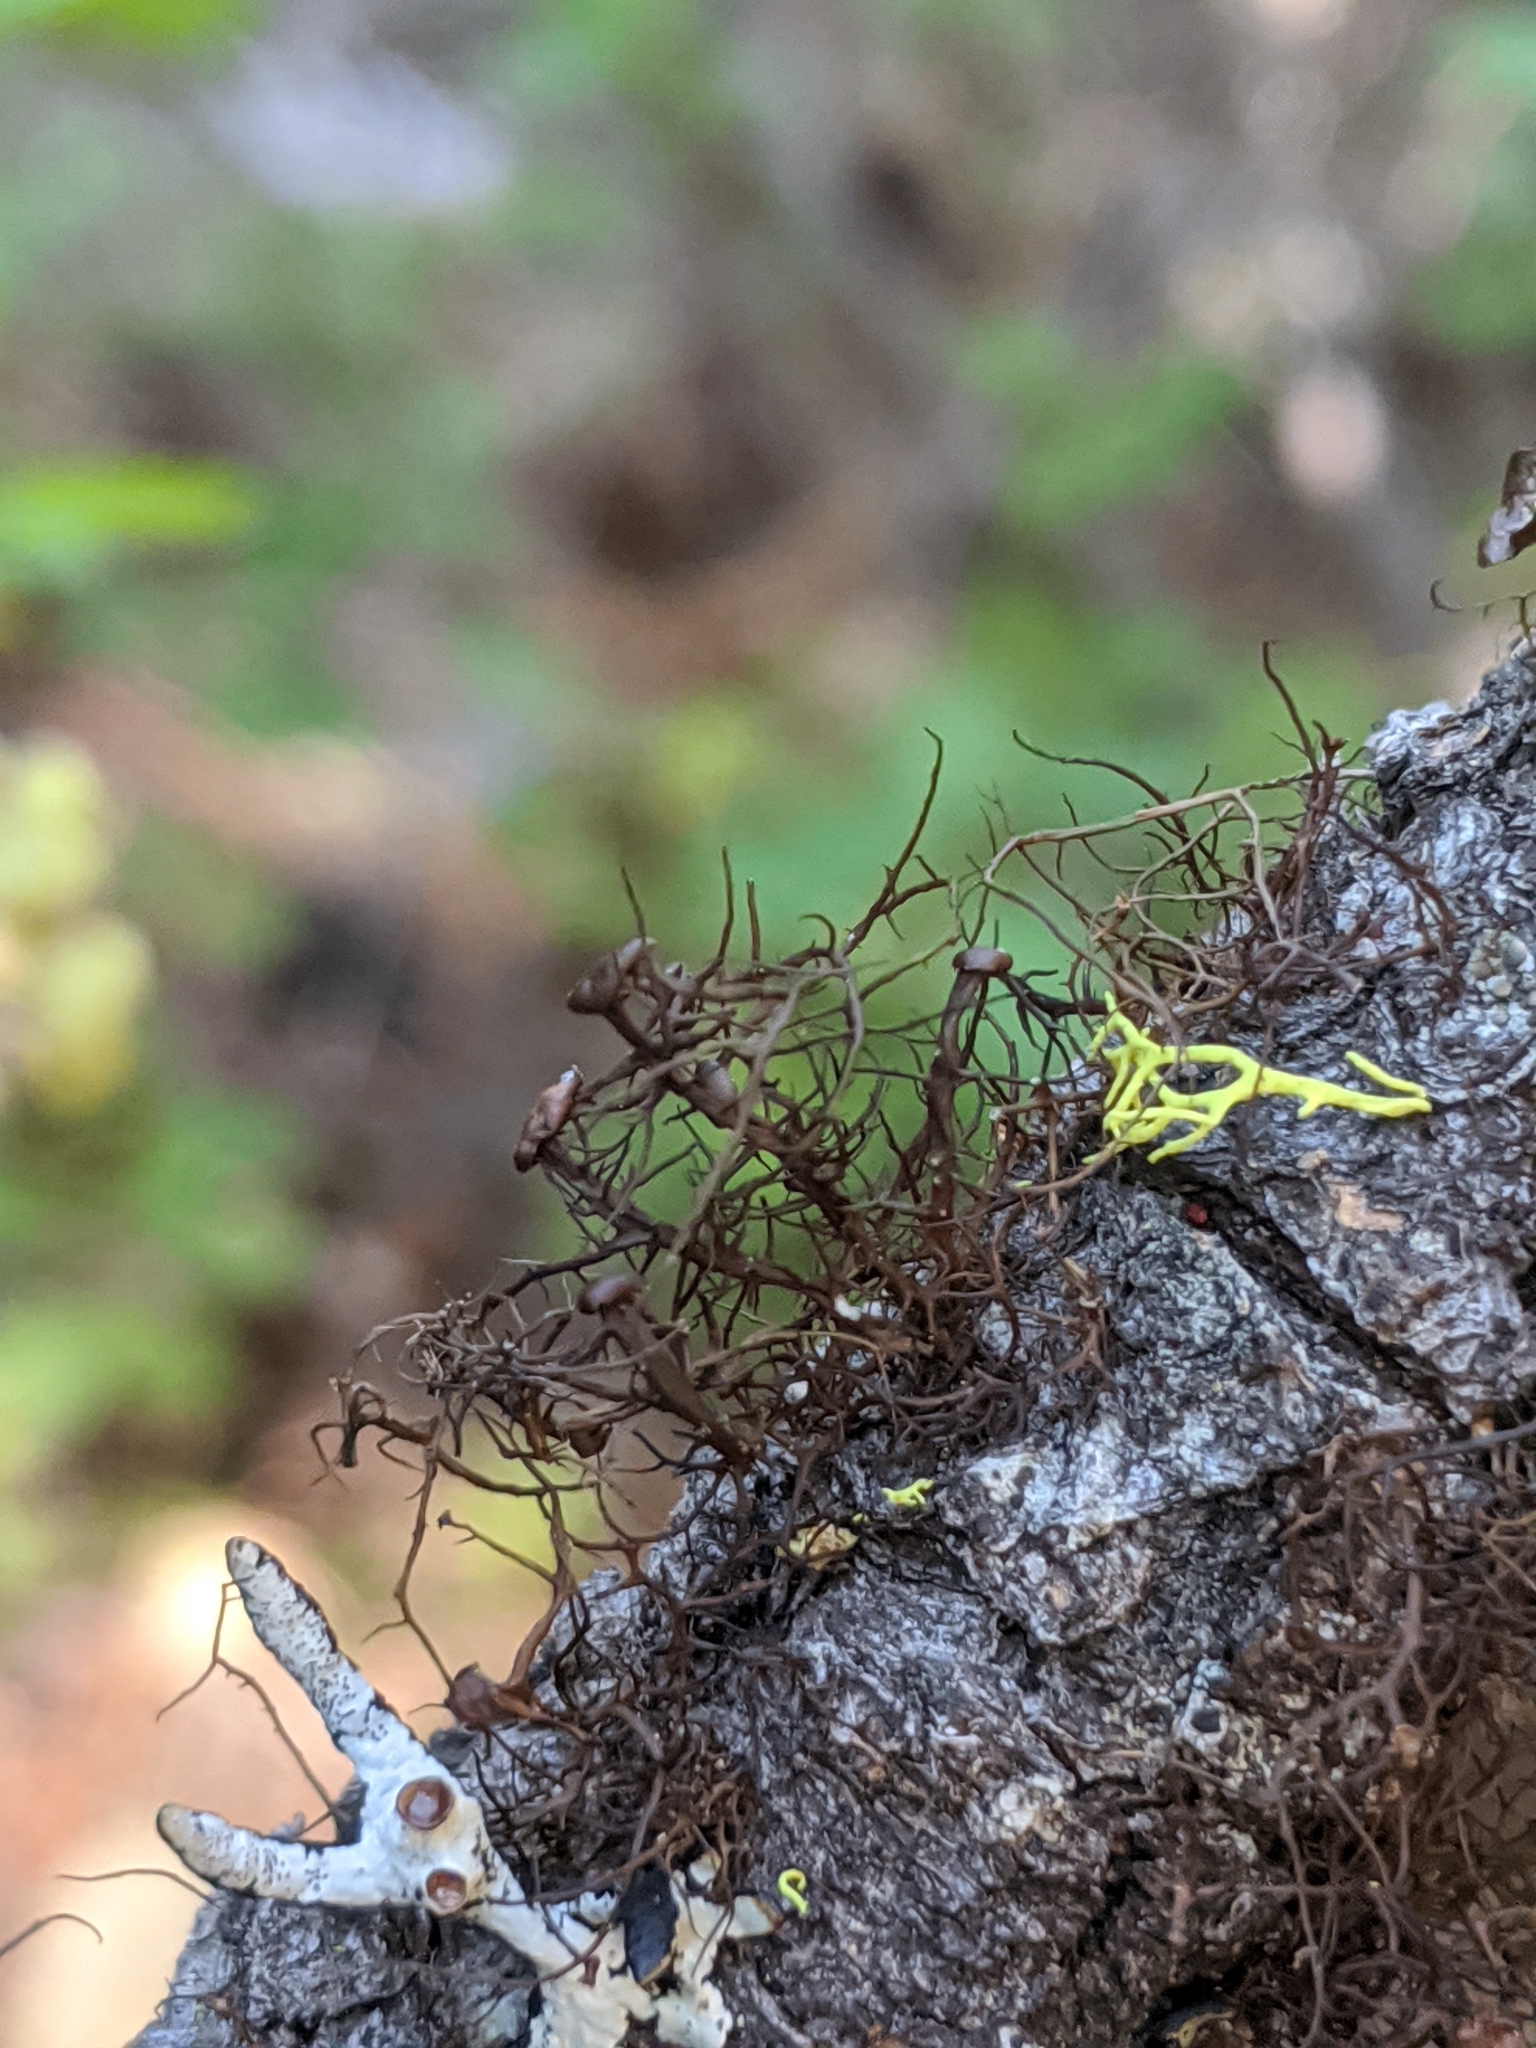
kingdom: Fungi
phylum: Ascomycota
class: Lecanoromycetes
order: Lecanorales
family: Parmeliaceae
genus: Nodobryoria
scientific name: Nodobryoria abbreviata
